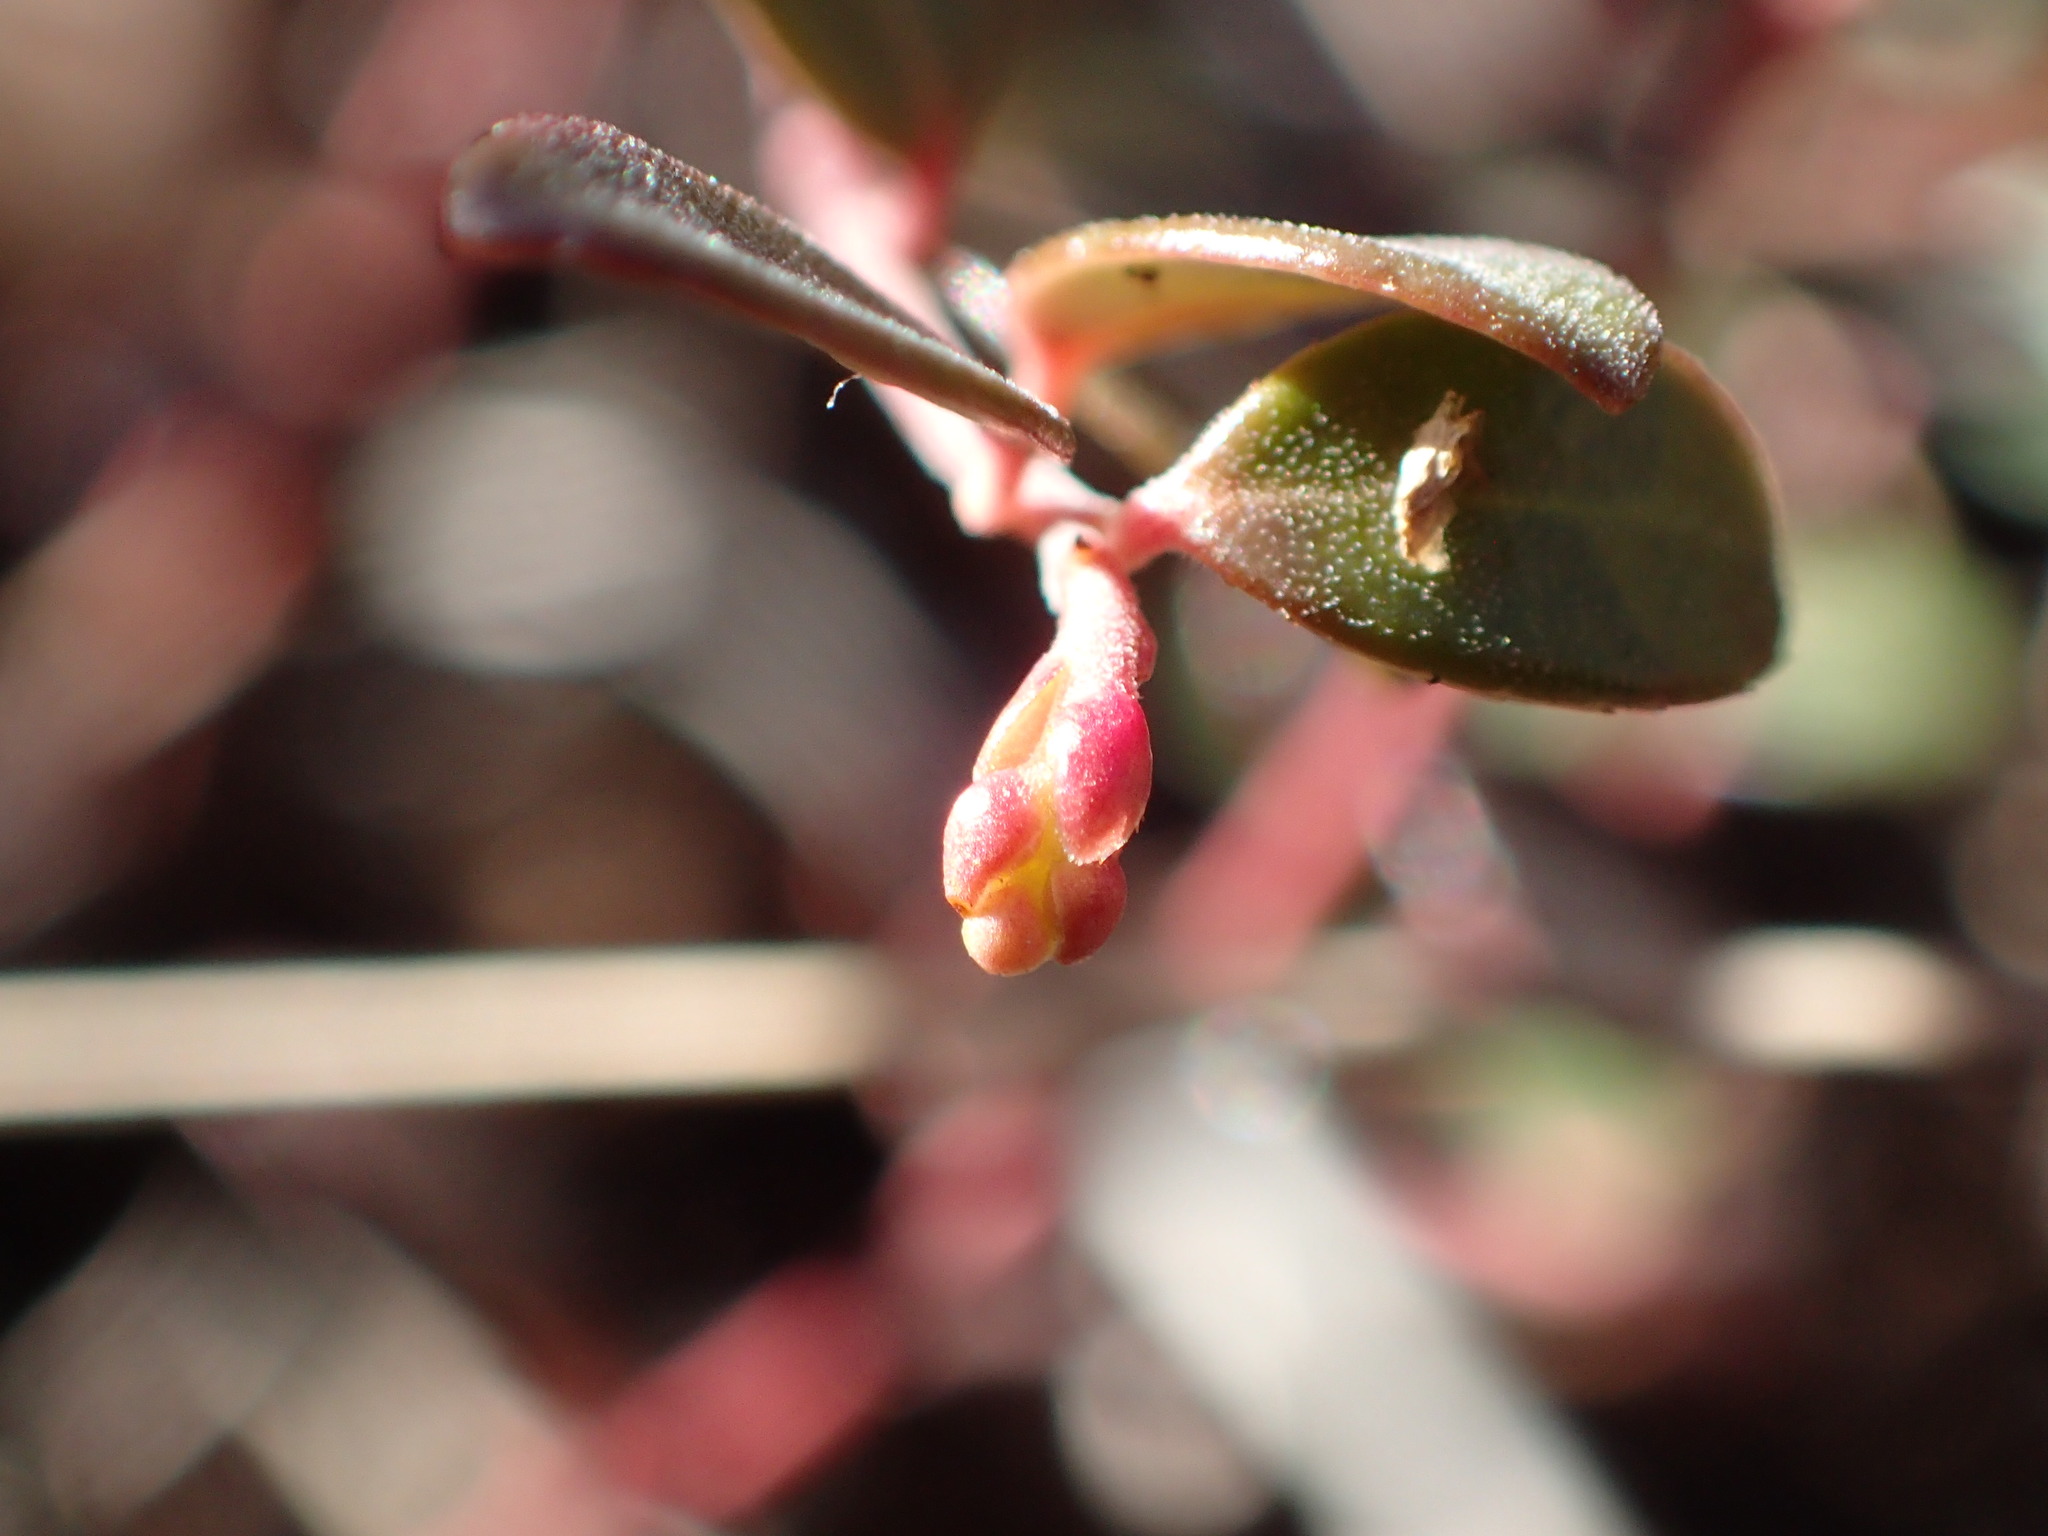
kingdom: Plantae
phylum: Tracheophyta
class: Magnoliopsida
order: Ericales
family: Ericaceae
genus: Vaccinium
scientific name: Vaccinium crassifolium
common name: Creeping blueberry
